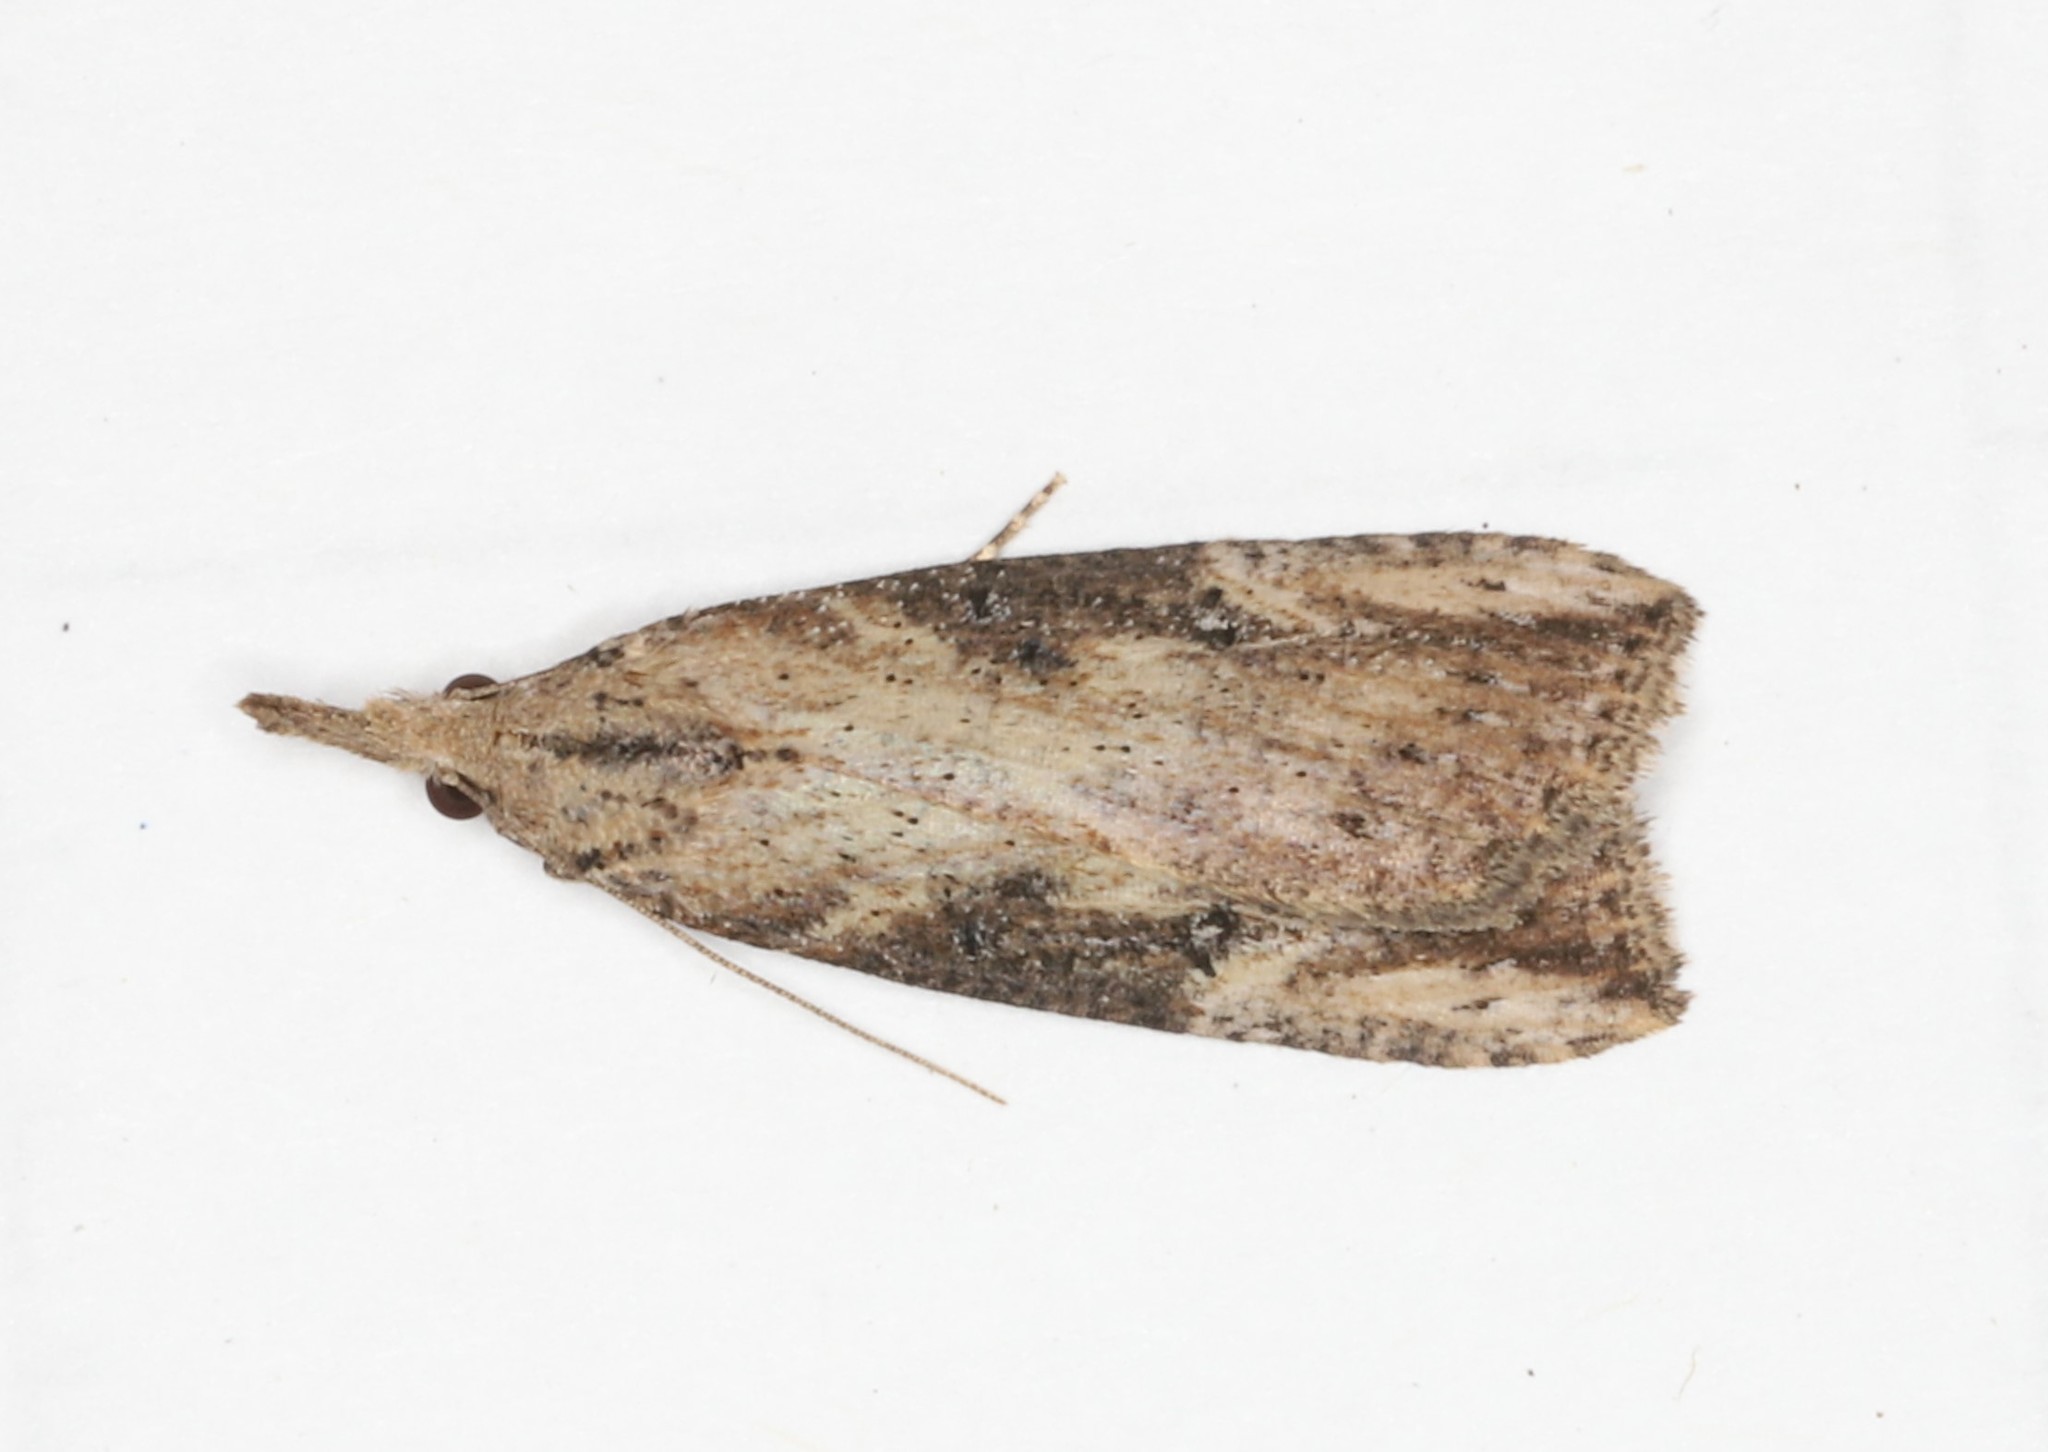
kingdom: Animalia
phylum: Arthropoda
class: Insecta
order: Lepidoptera
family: Erebidae
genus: Hypena
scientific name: Hypena humuli
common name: Hop vine snout
